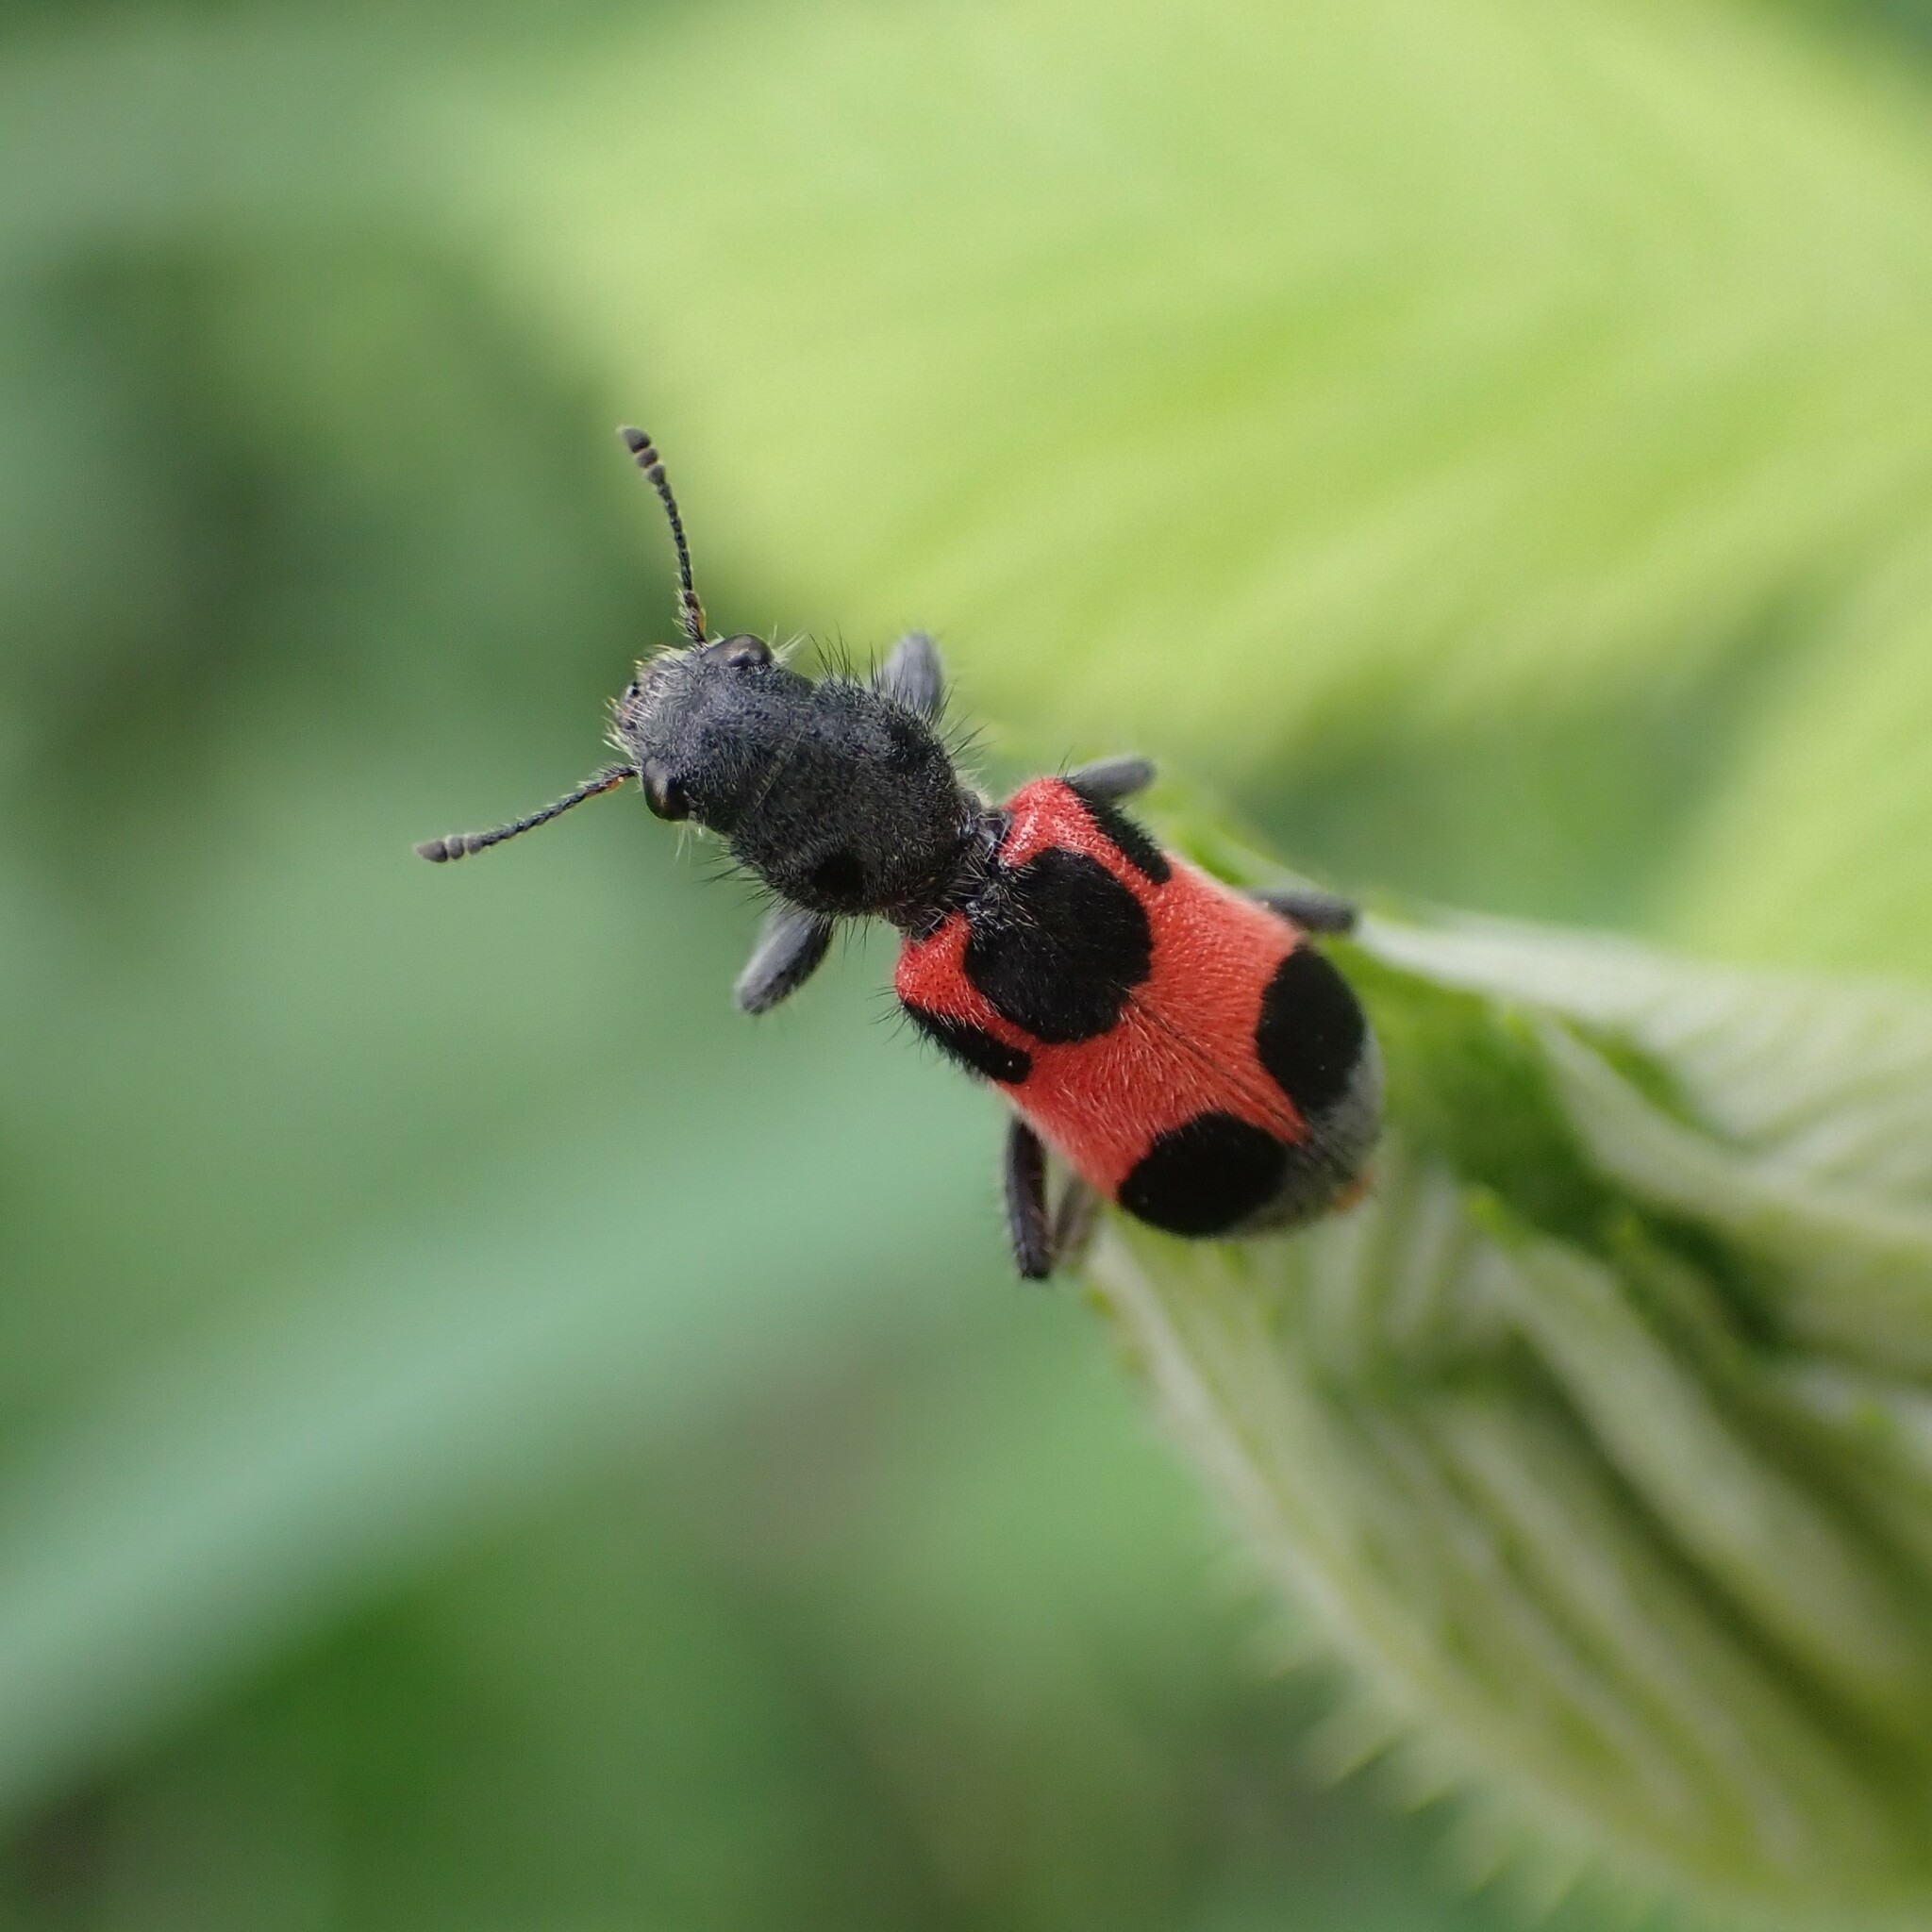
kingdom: Animalia
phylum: Arthropoda
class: Insecta
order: Coleoptera
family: Cleridae
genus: Enoclerus
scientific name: Enoclerus eximius
